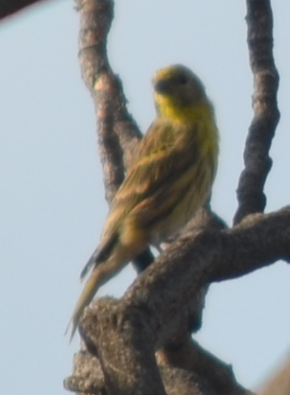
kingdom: Animalia
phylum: Chordata
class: Aves
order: Passeriformes
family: Fringillidae
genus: Serinus
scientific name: Serinus serinus
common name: European serin
